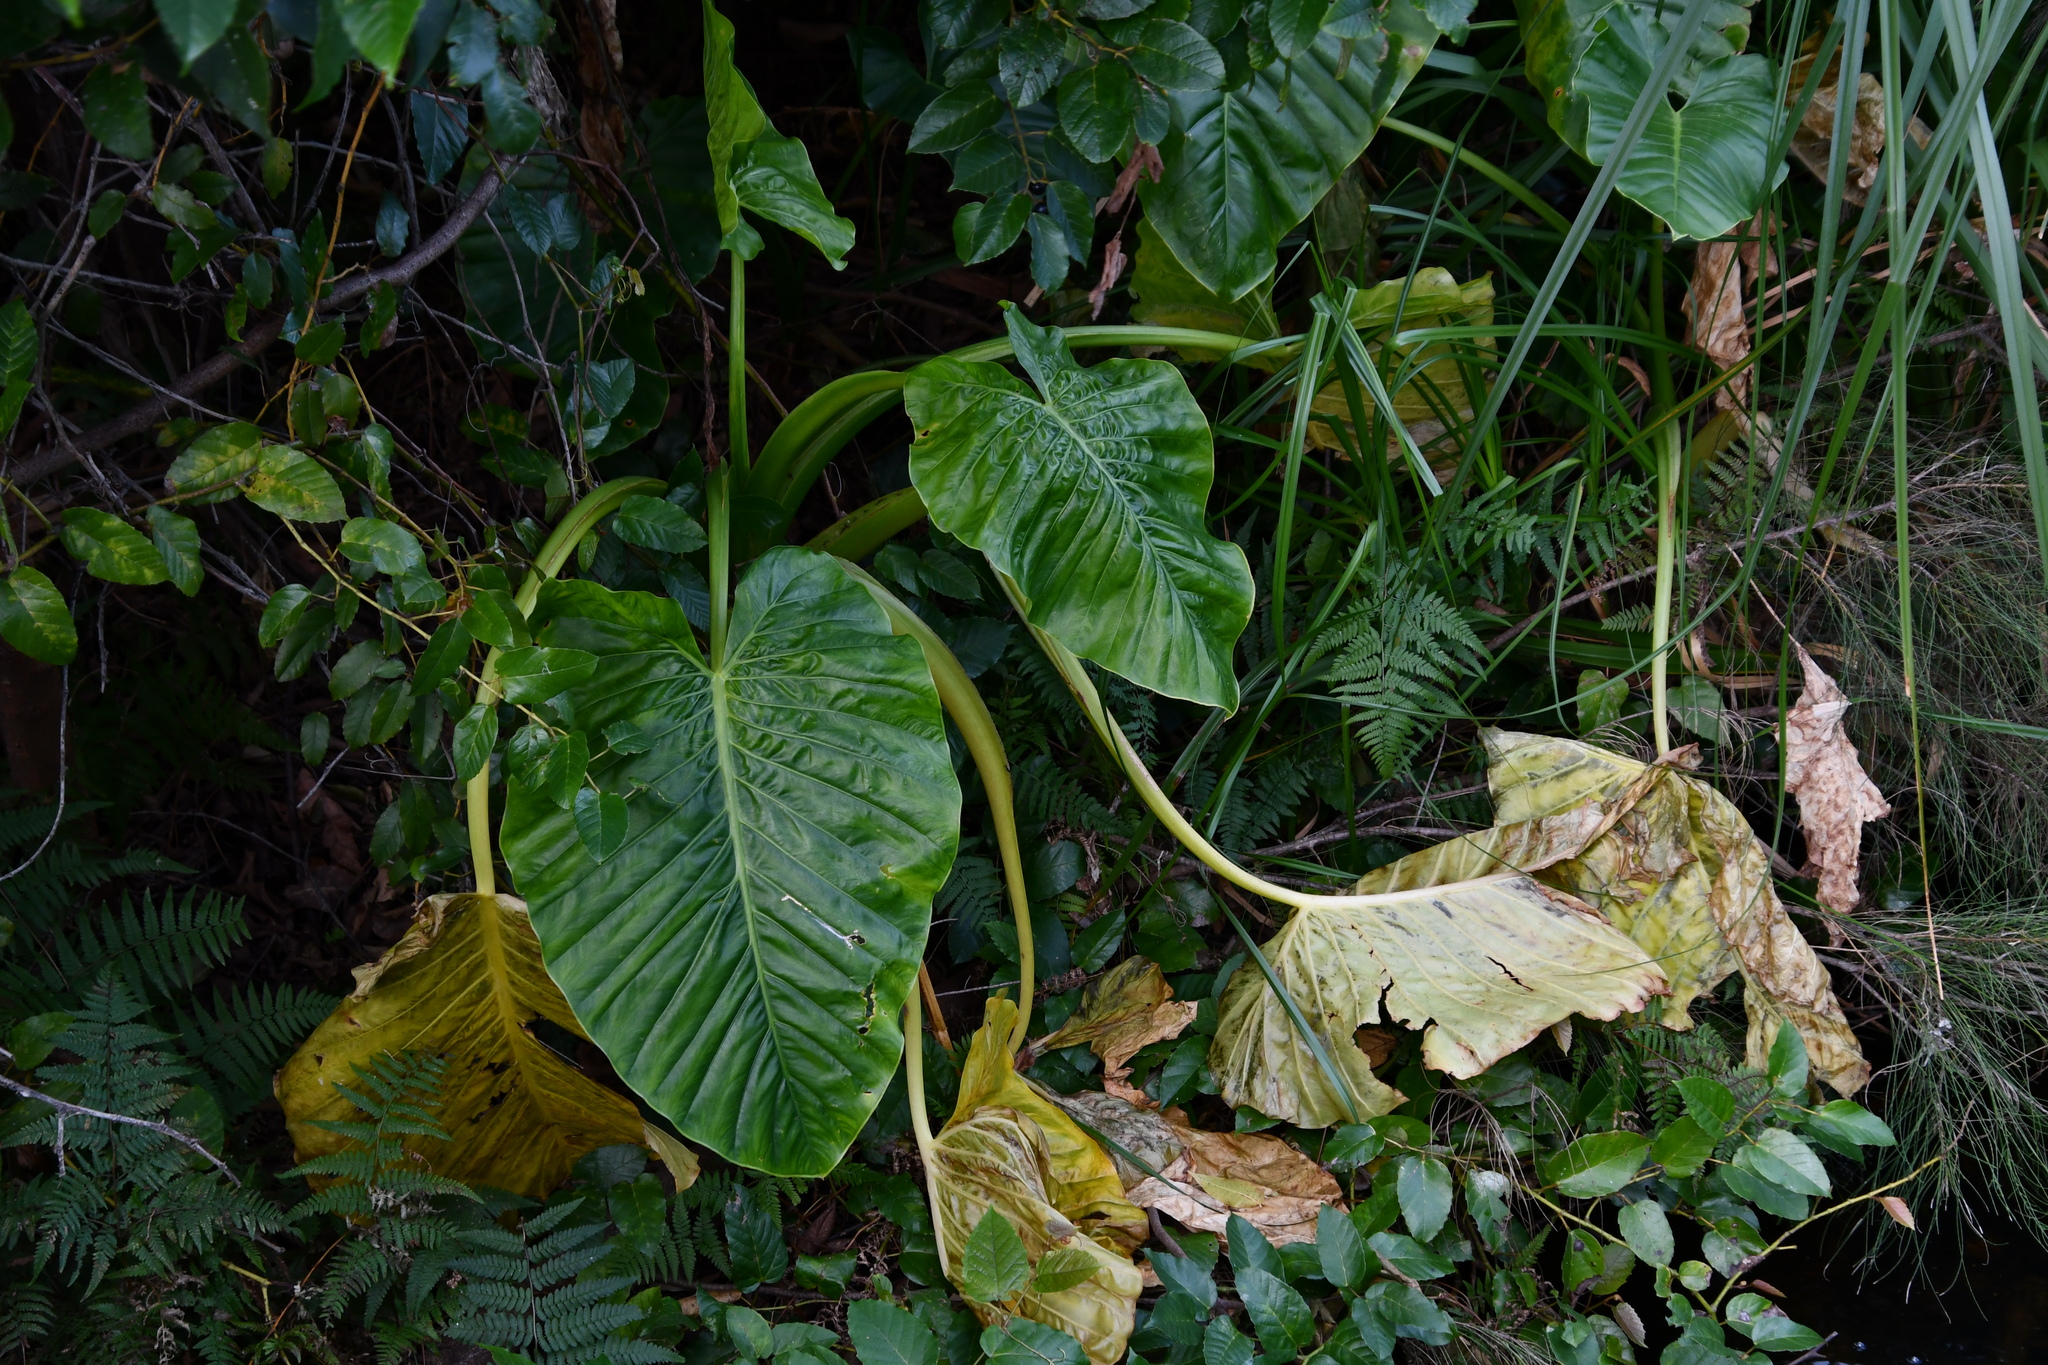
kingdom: Plantae
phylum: Tracheophyta
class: Liliopsida
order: Alismatales
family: Araceae
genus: Alocasia
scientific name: Alocasia brisbanensis
